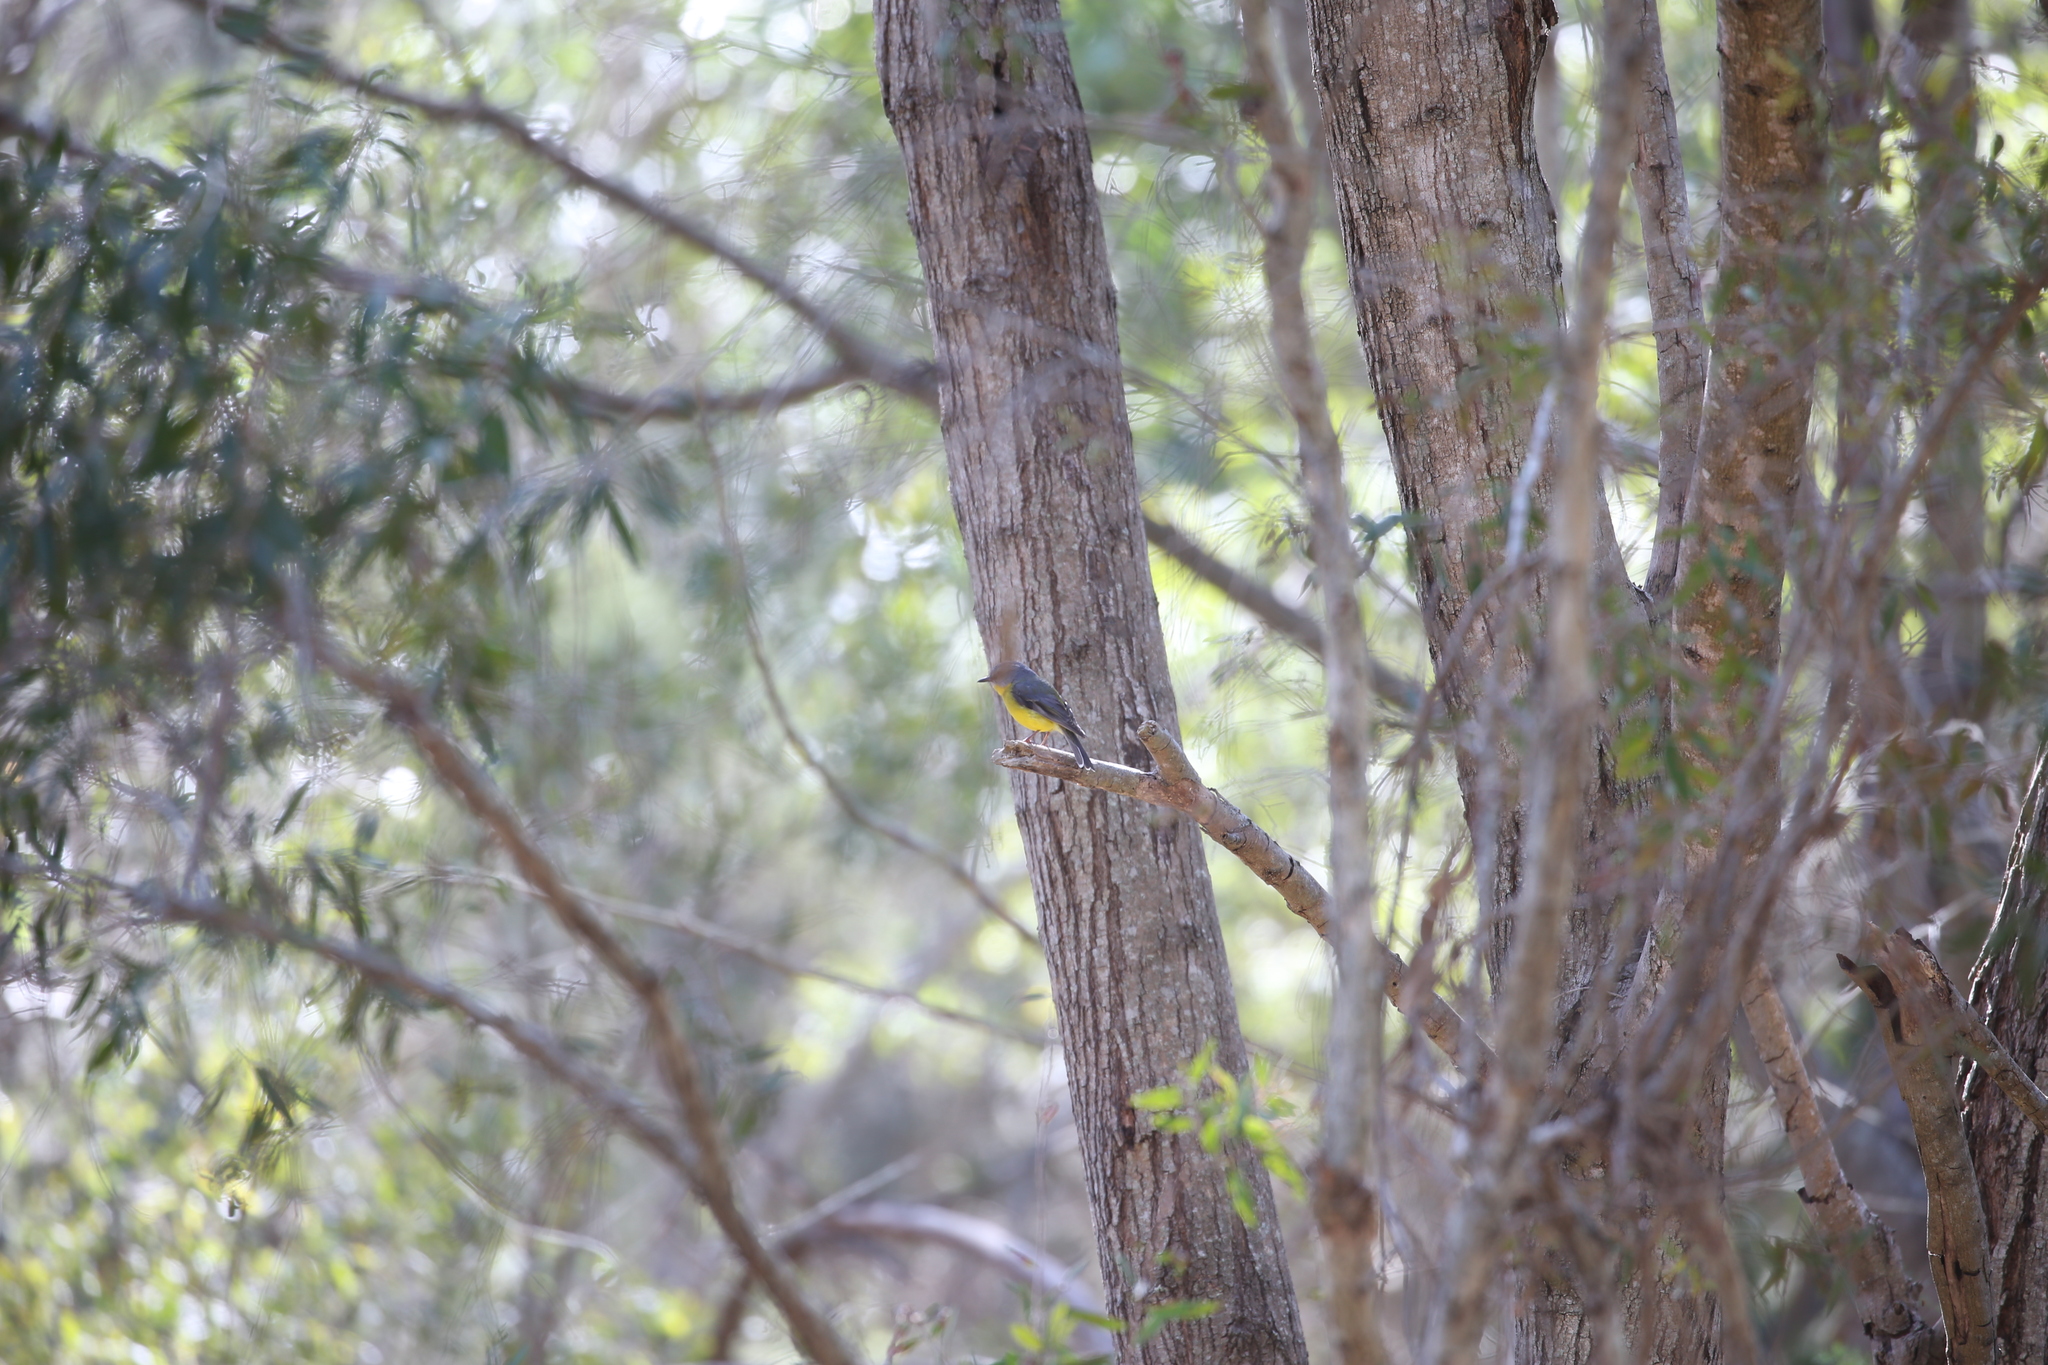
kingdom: Animalia
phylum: Chordata
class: Aves
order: Passeriformes
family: Petroicidae
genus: Eopsaltria
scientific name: Eopsaltria australis
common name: Eastern yellow robin
